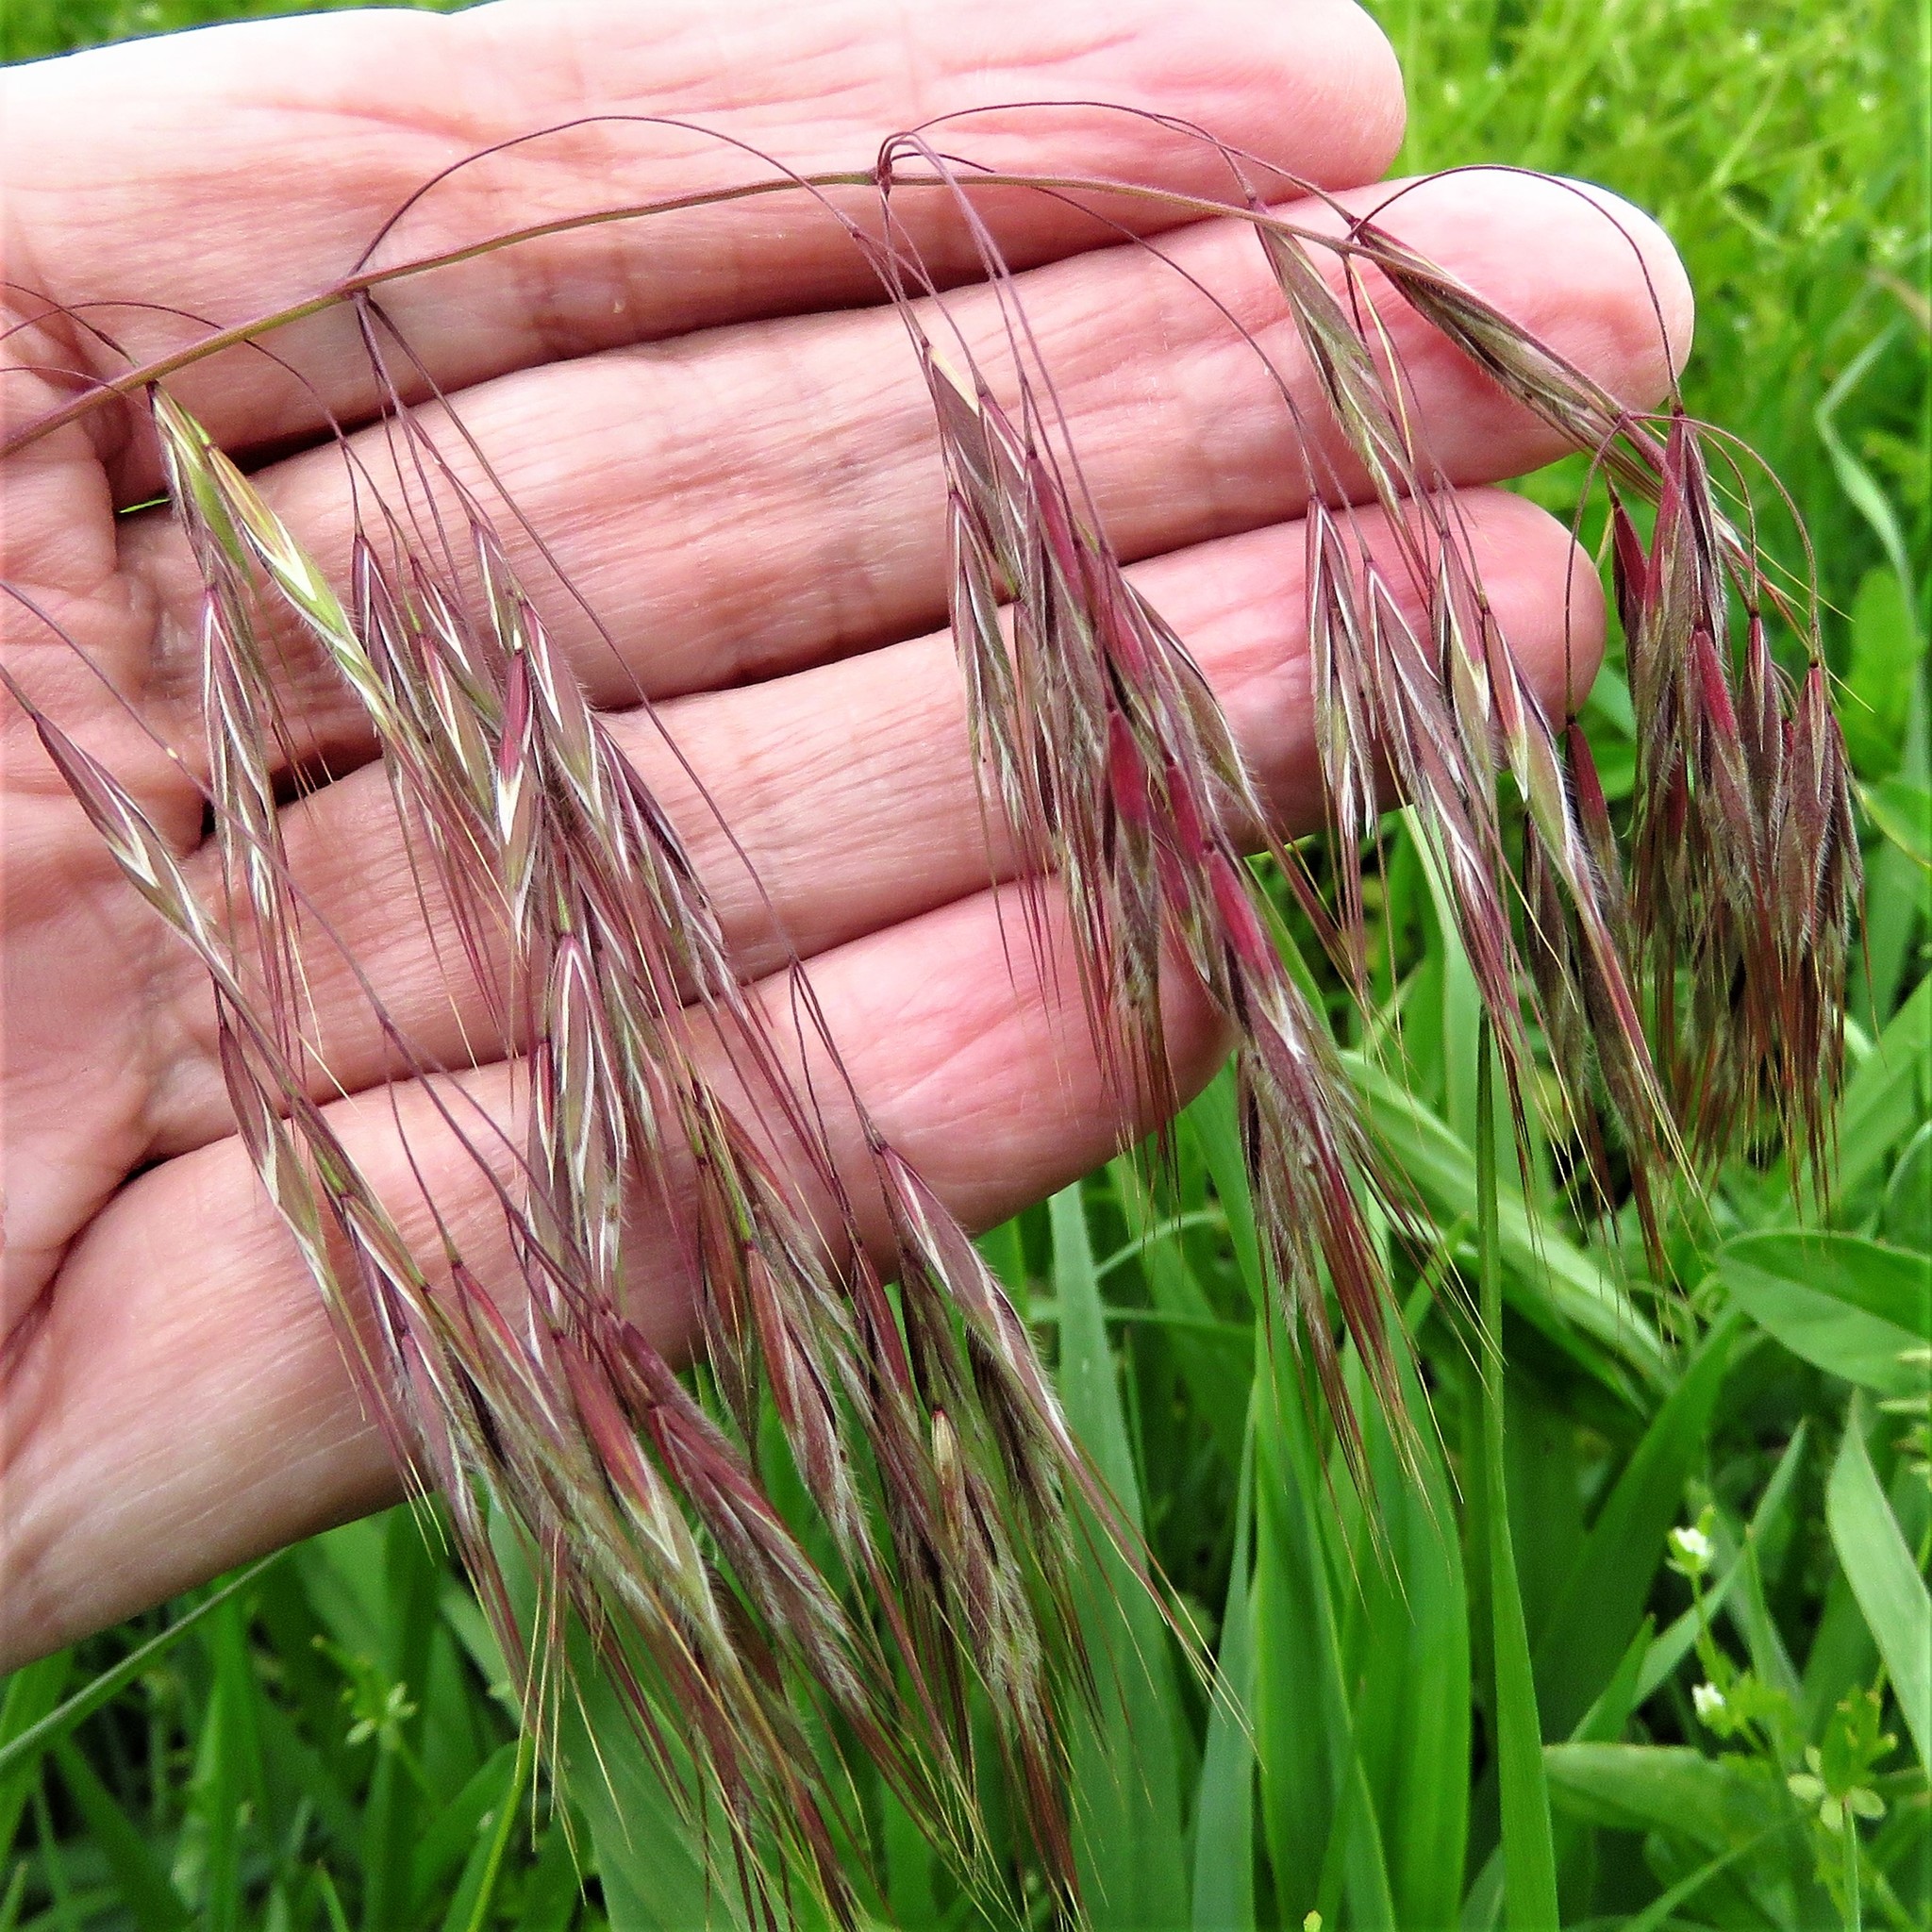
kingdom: Plantae
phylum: Tracheophyta
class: Liliopsida
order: Poales
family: Poaceae
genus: Bromus
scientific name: Bromus tectorum
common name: Cheatgrass
